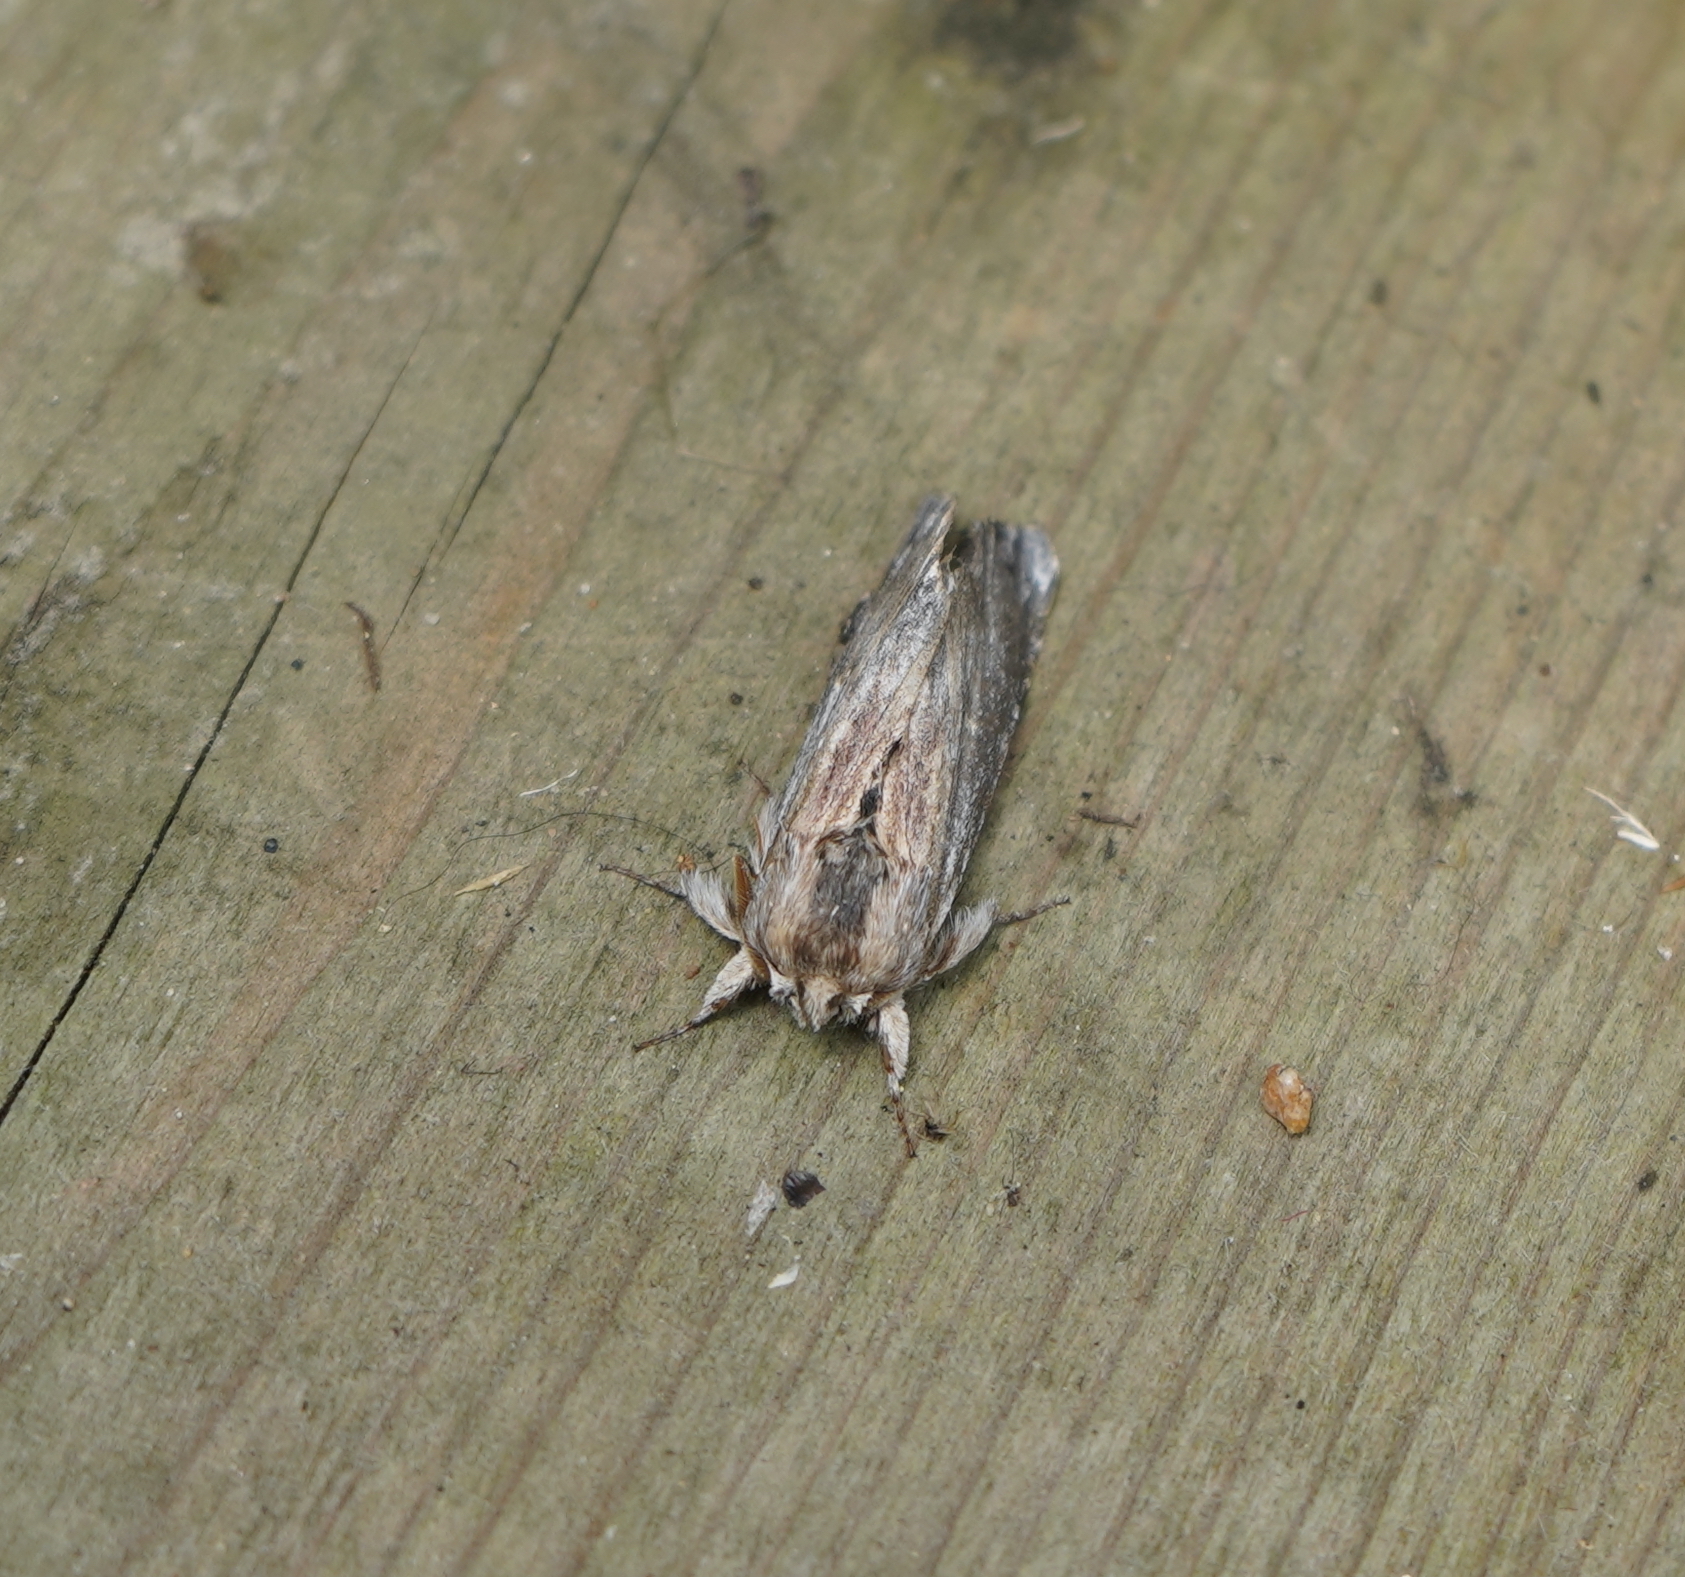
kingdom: Animalia
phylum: Arthropoda
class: Insecta
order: Lepidoptera
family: Notodontidae
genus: Oligocentria
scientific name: Oligocentria Ianassa lignicolor
